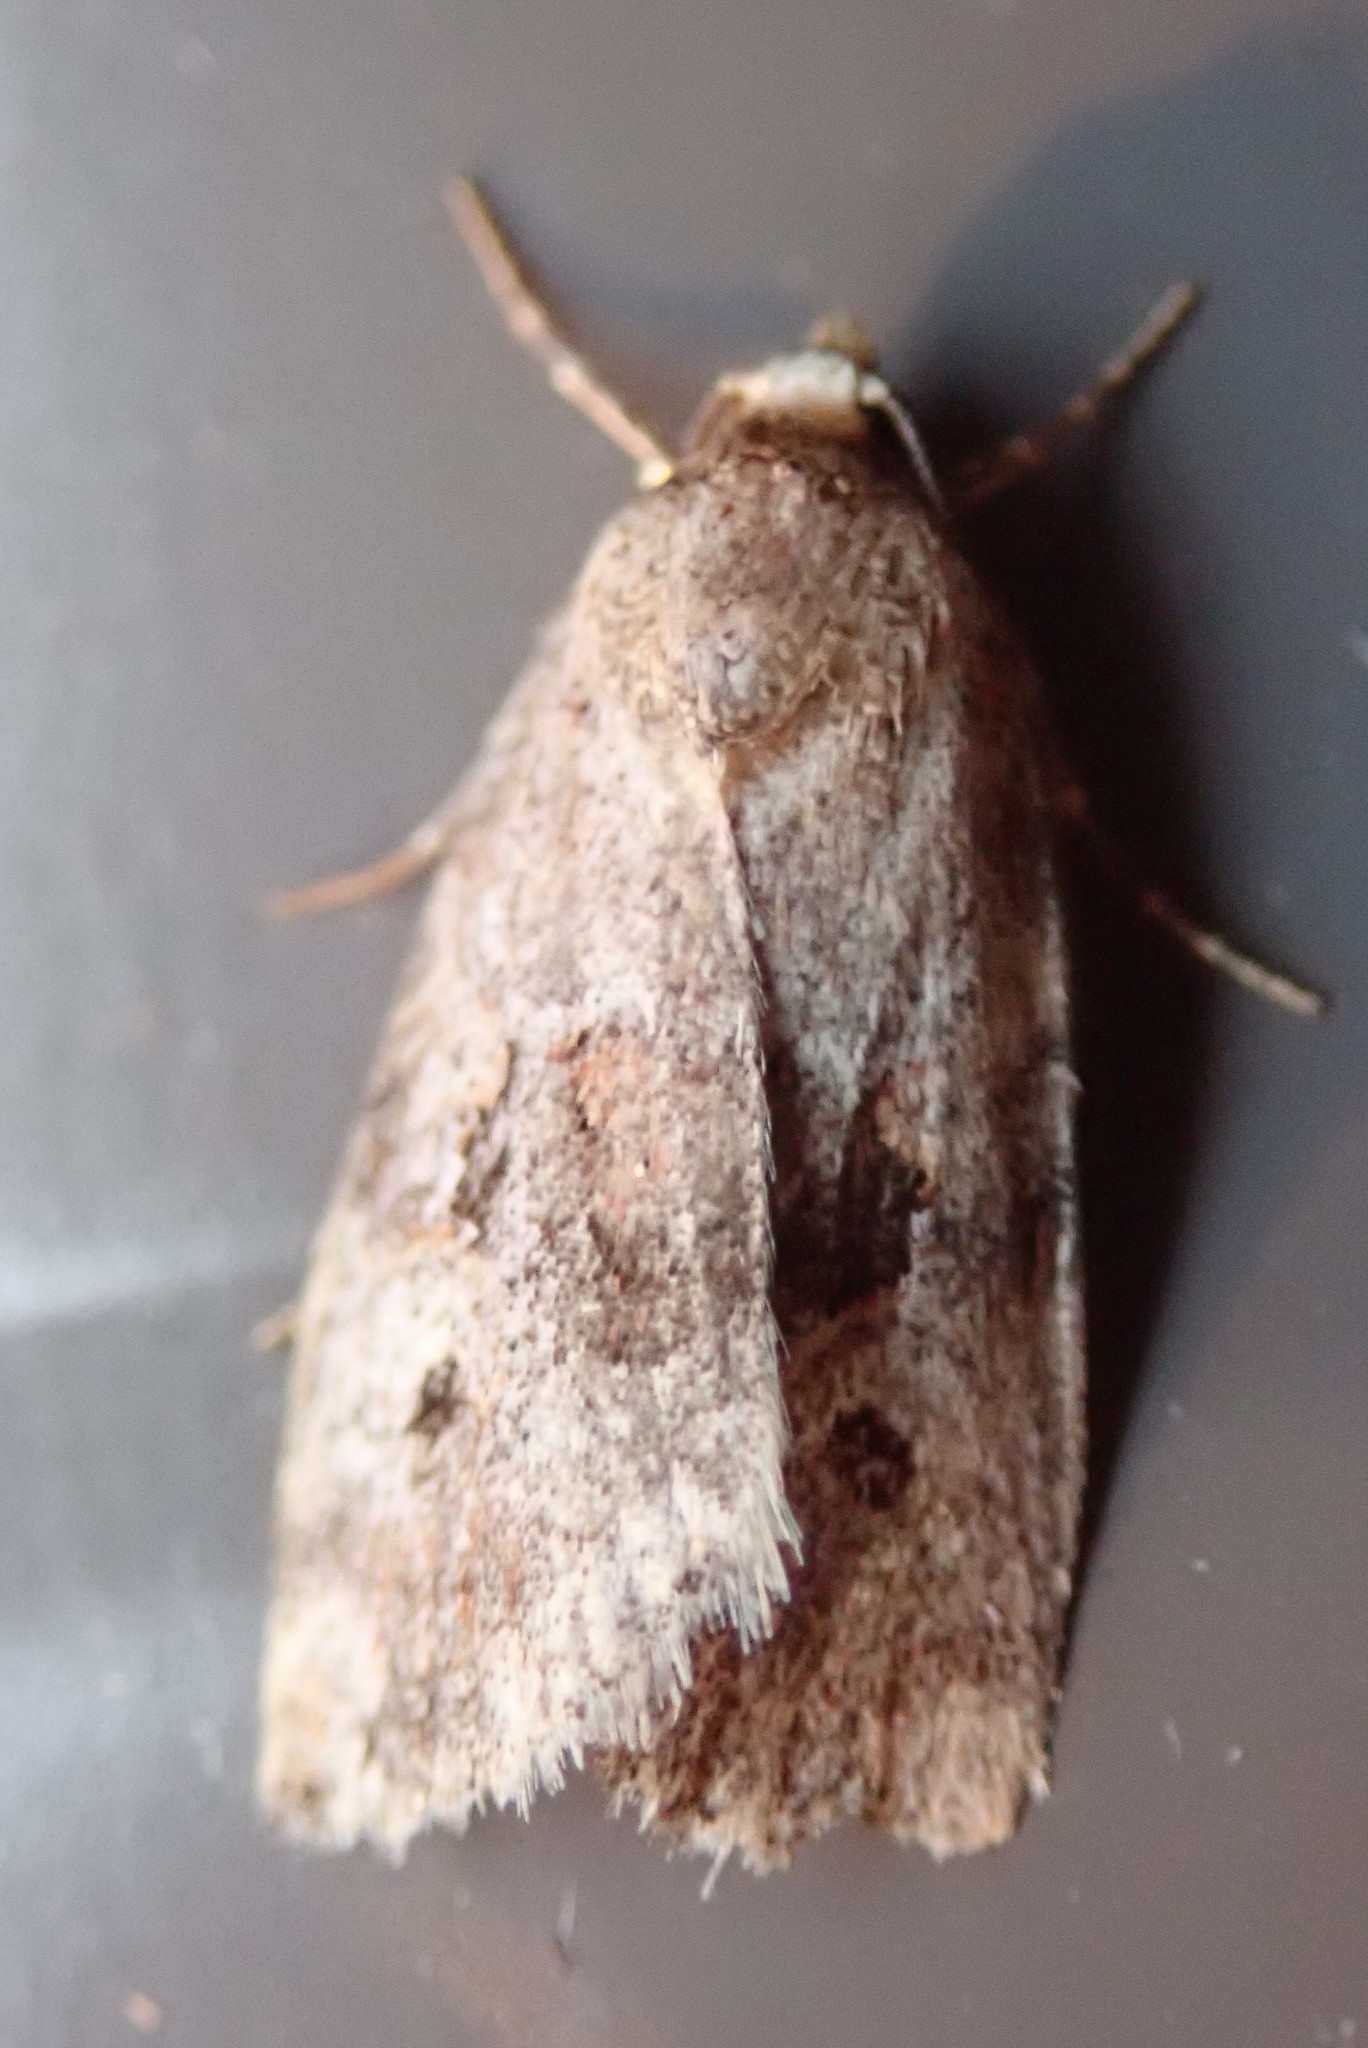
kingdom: Animalia
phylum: Arthropoda
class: Insecta
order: Lepidoptera
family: Noctuidae
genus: Elaphria
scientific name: Elaphria alapallida
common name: Pale-winged midget
